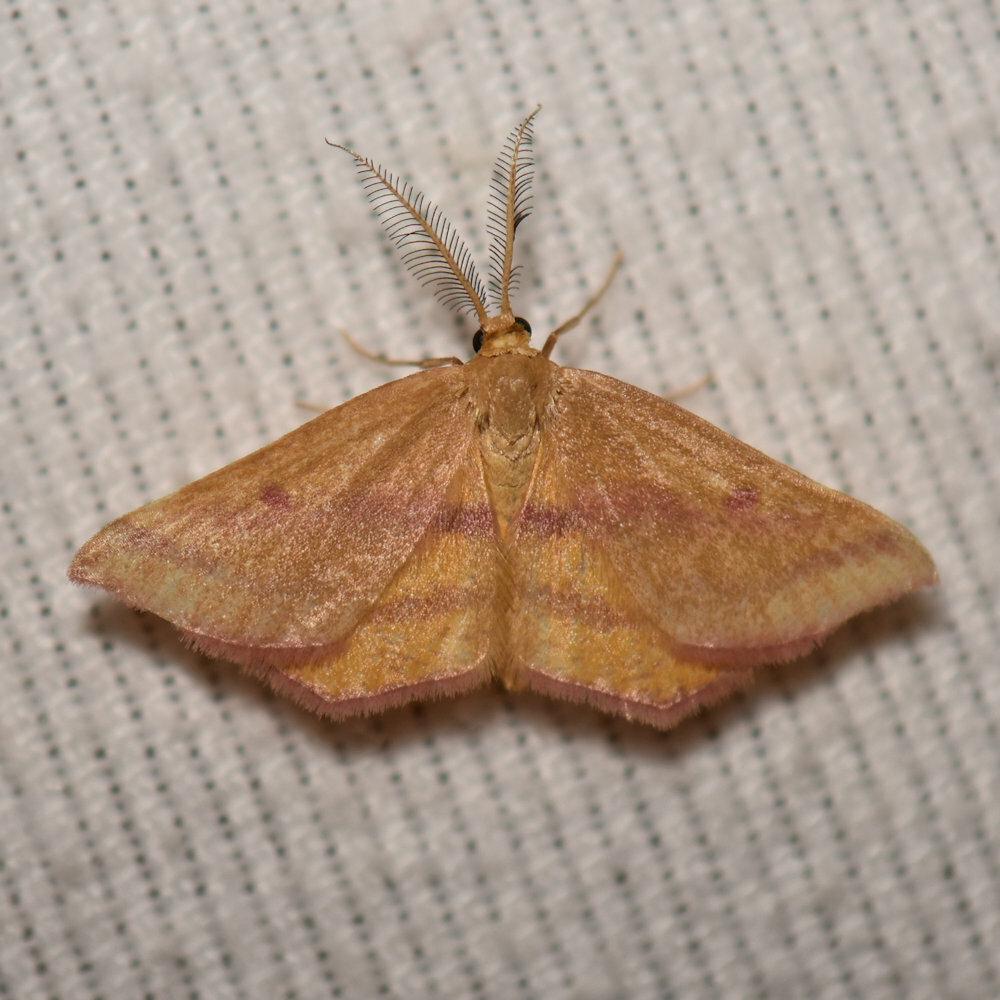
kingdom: Animalia
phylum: Arthropoda
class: Insecta
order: Lepidoptera
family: Geometridae
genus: Haematopis
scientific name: Haematopis grataria
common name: Chickweed geometer
